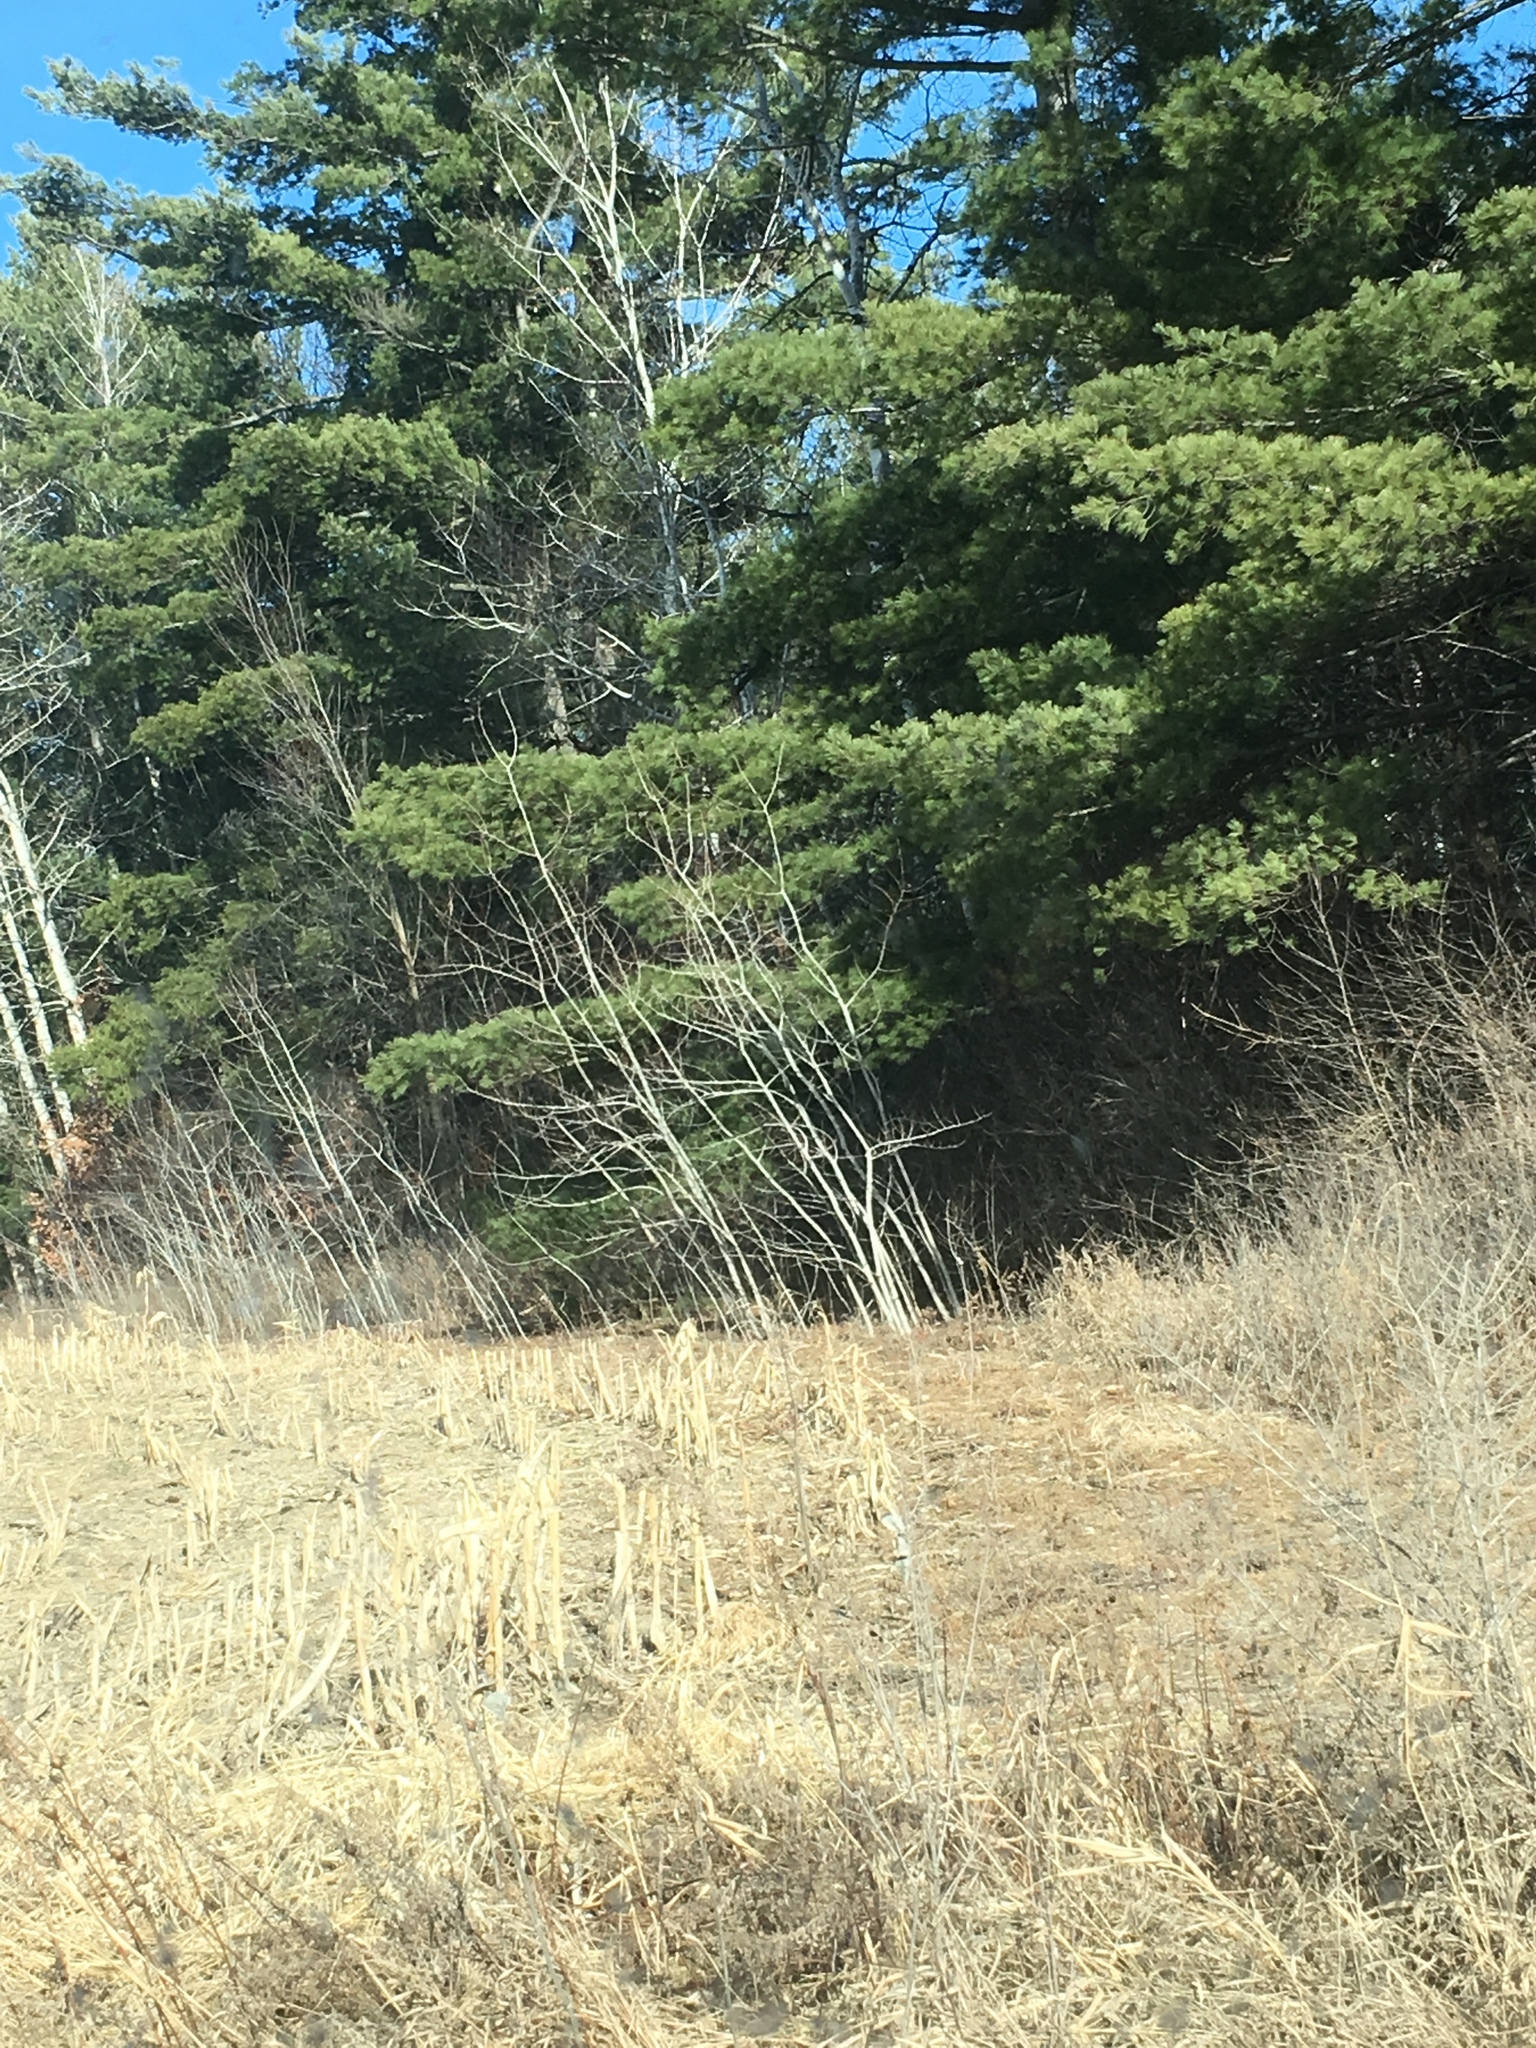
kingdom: Plantae
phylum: Tracheophyta
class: Pinopsida
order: Pinales
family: Pinaceae
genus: Pinus
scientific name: Pinus strobus
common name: Weymouth pine
